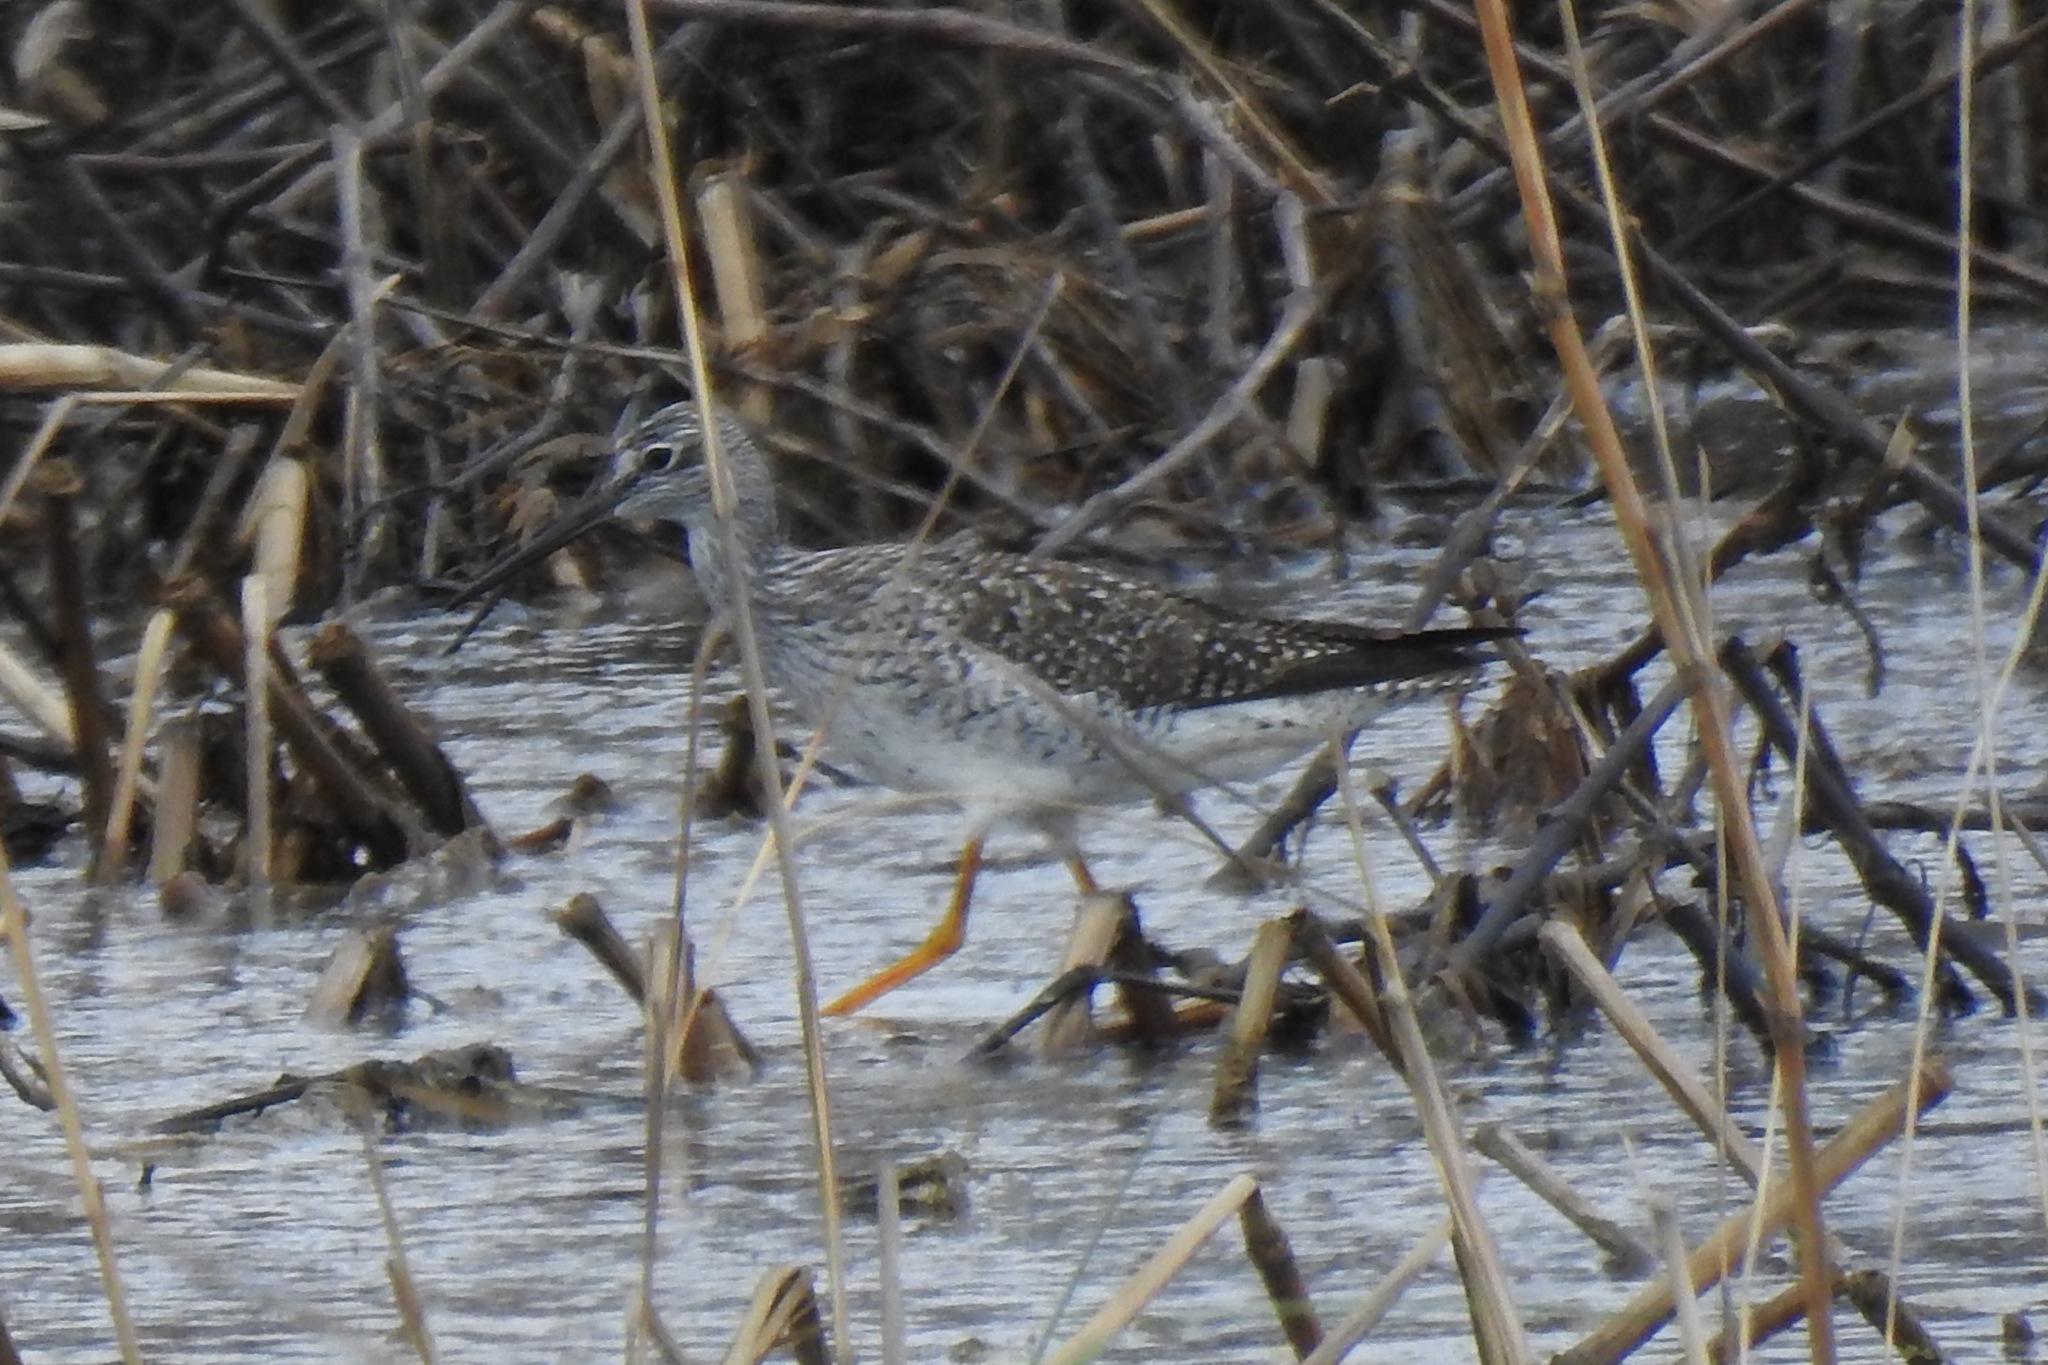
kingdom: Animalia
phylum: Chordata
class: Aves
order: Charadriiformes
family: Scolopacidae
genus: Tringa
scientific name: Tringa melanoleuca
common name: Greater yellowlegs
